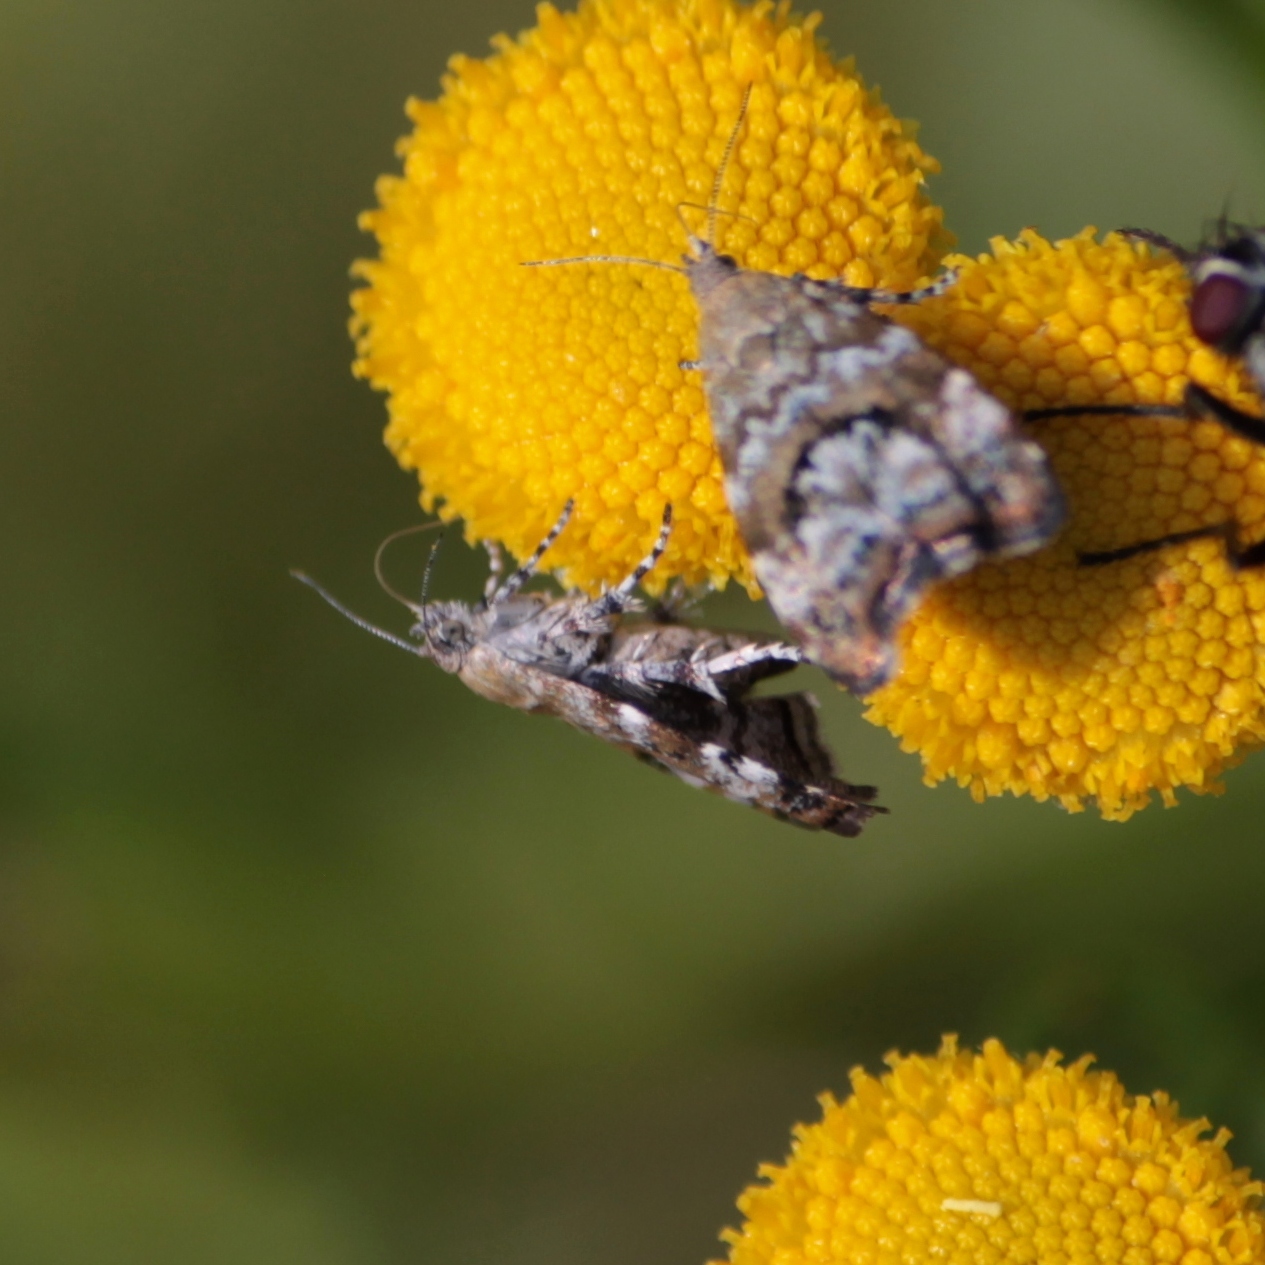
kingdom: Animalia
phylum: Arthropoda
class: Insecta
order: Lepidoptera
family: Choreutidae
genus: Choreutis
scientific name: Choreutis diana
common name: Inverness twitcher
